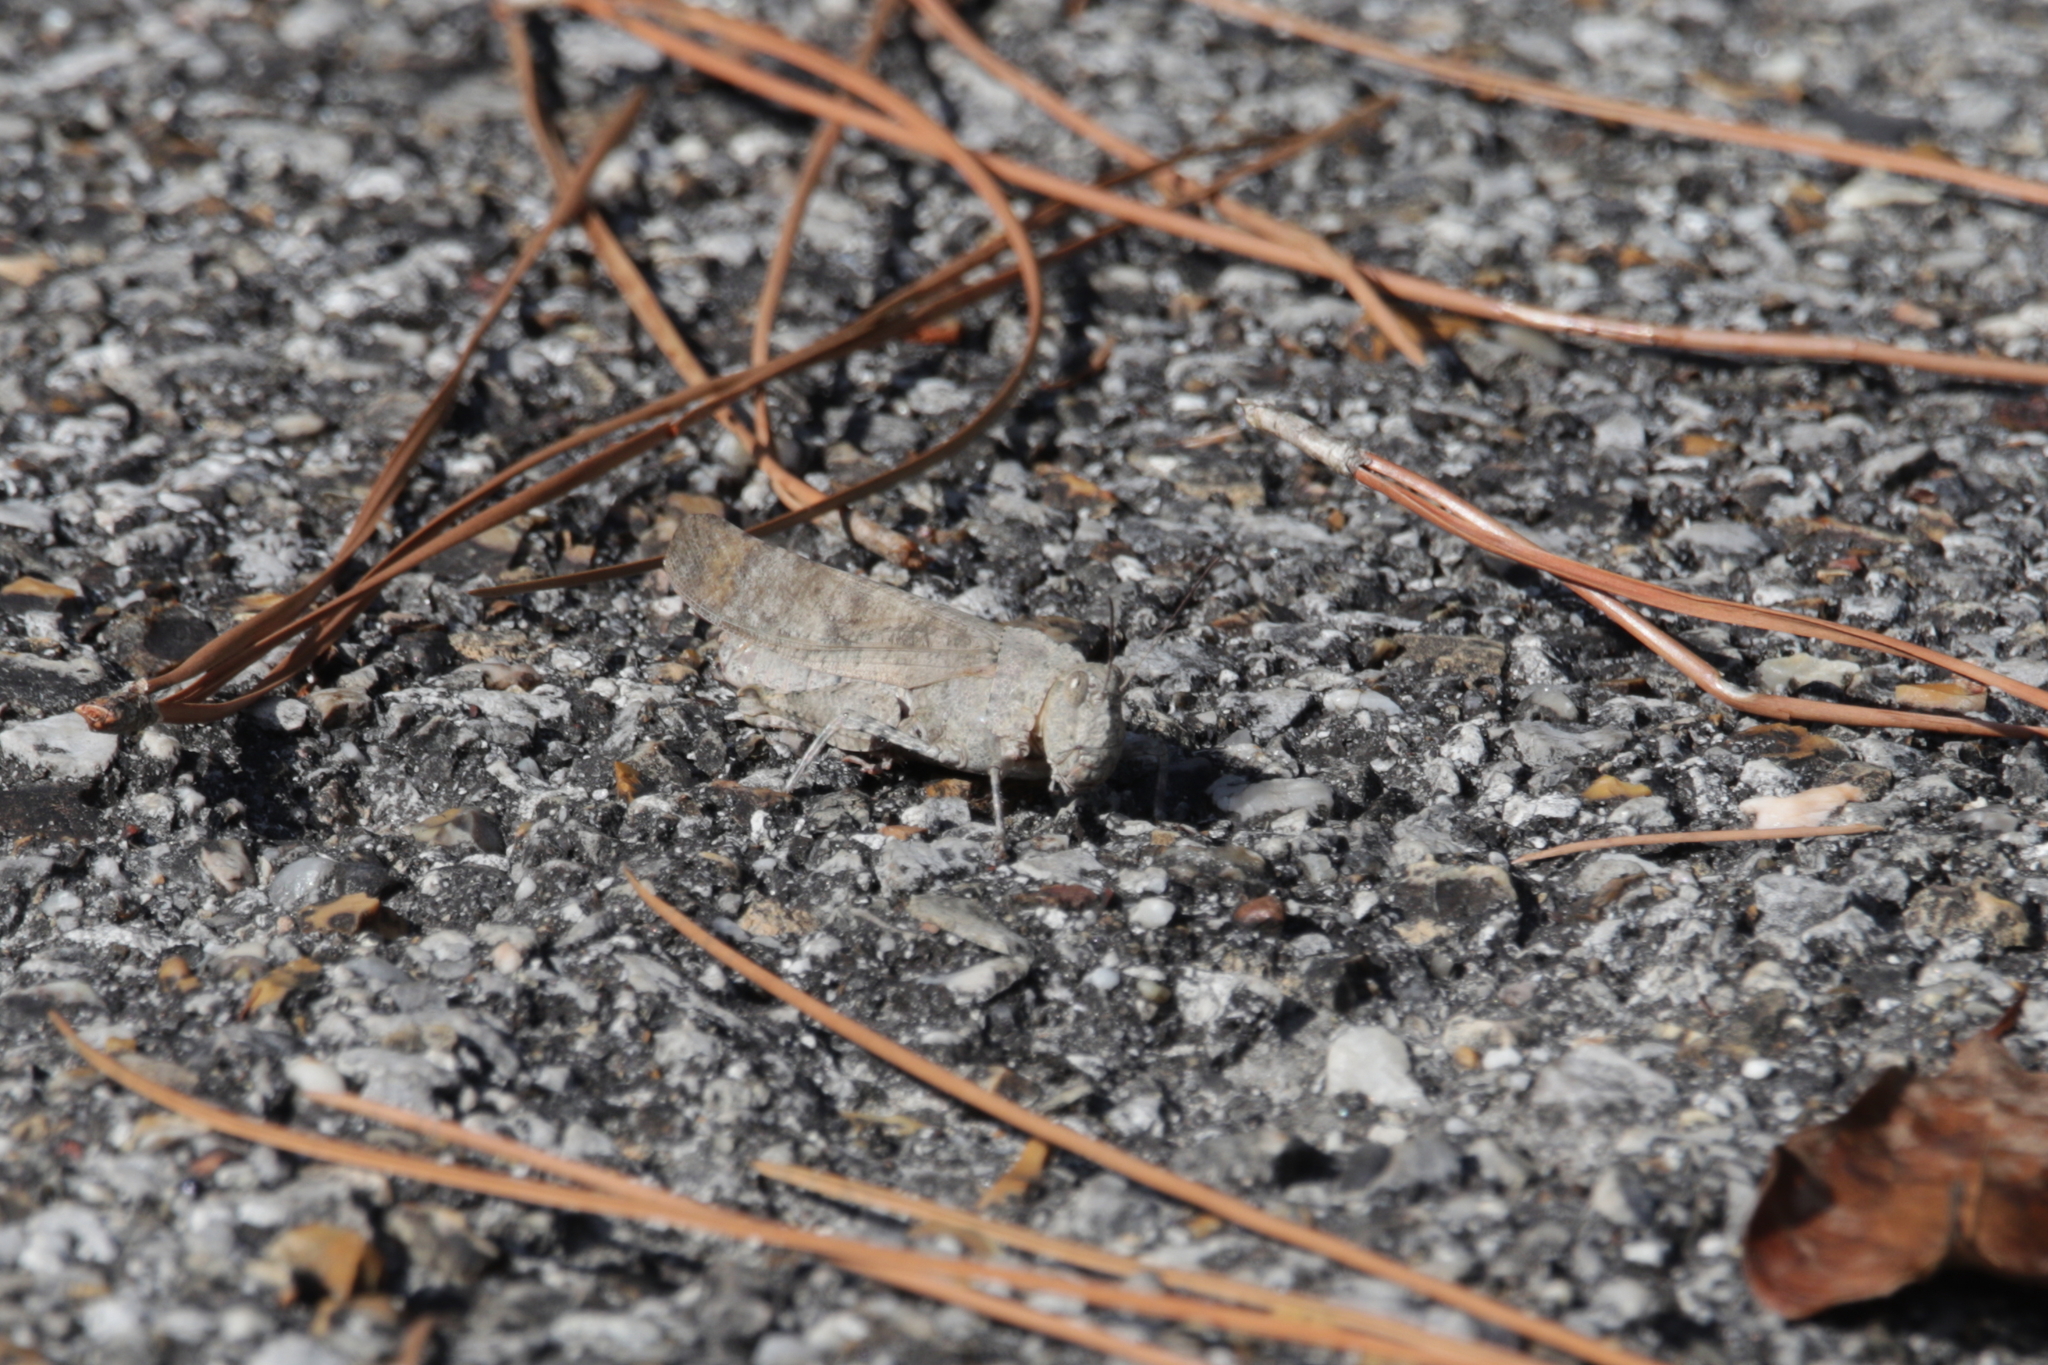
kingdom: Animalia
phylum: Arthropoda
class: Insecta
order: Orthoptera
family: Acrididae
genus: Dissosteira
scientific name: Dissosteira carolina
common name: Carolina grasshopper
